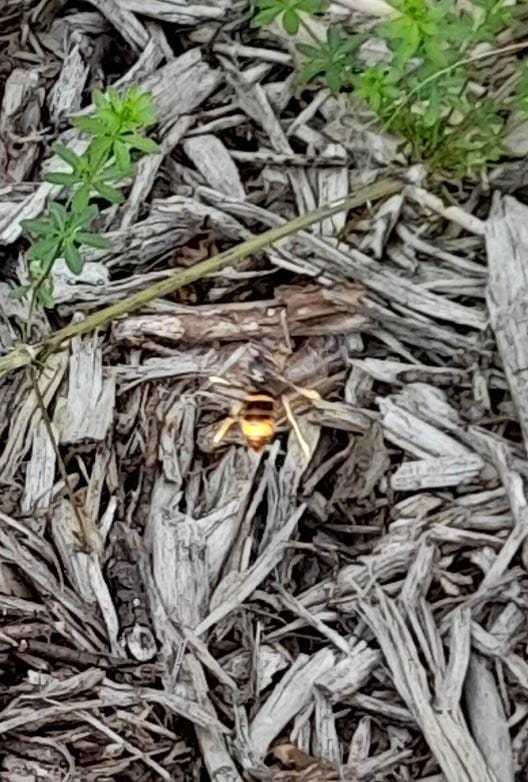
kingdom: Animalia
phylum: Arthropoda
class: Insecta
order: Hymenoptera
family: Vespidae
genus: Vespa
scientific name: Vespa velutina
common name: Asian hornet
